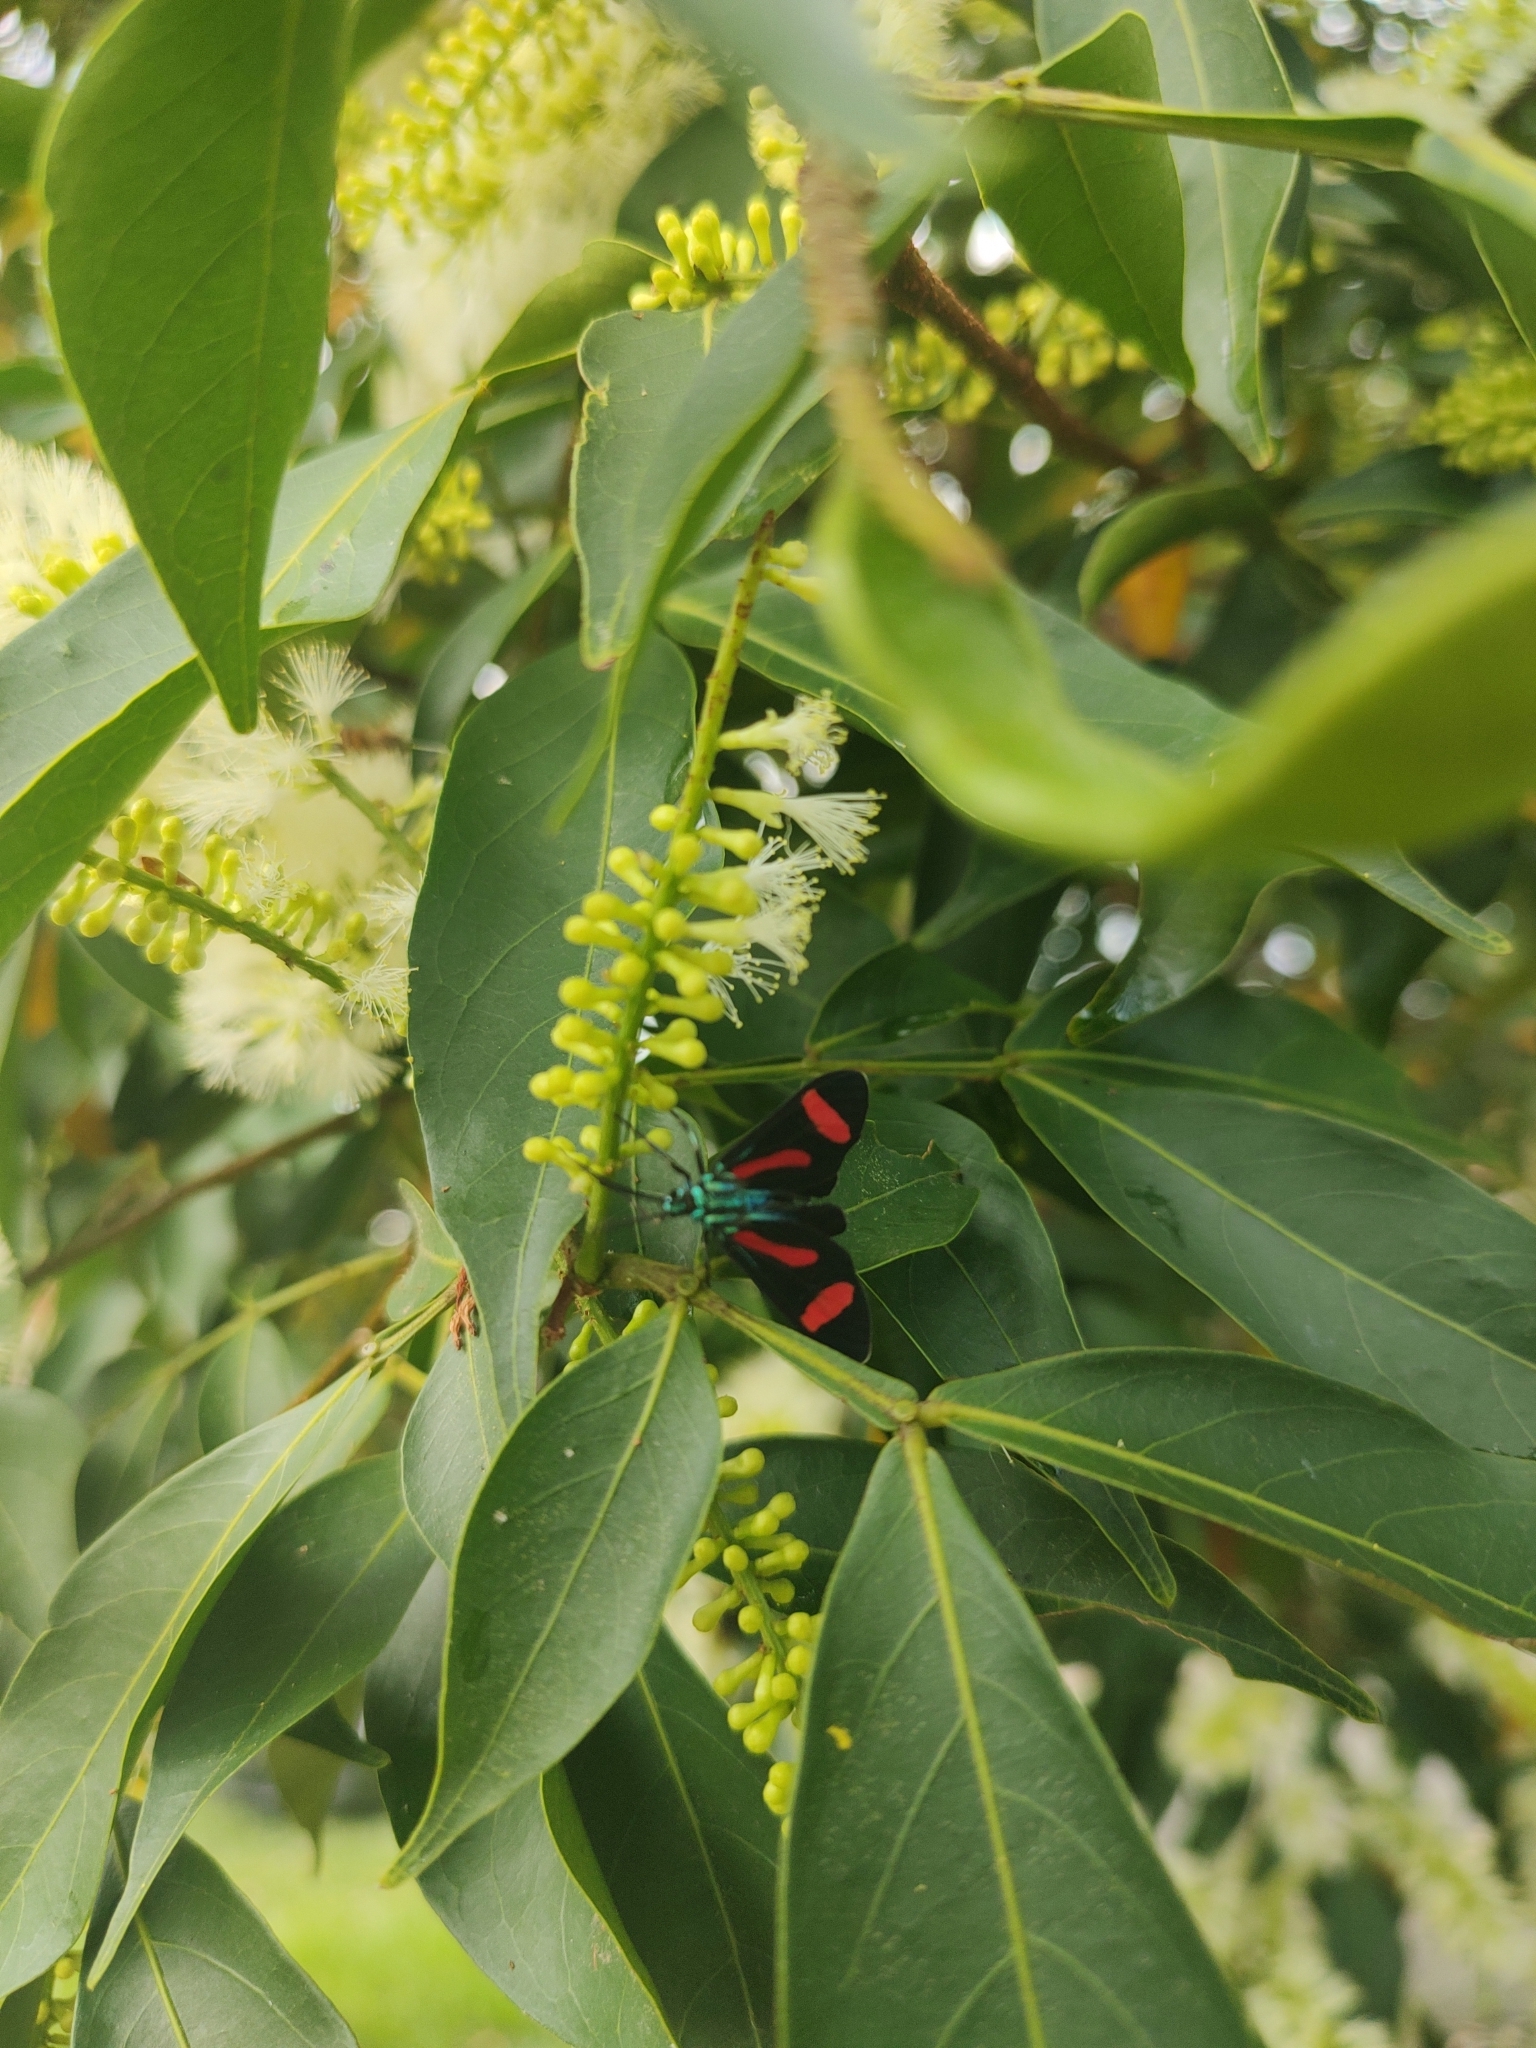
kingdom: Animalia
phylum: Arthropoda
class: Insecta
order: Lepidoptera
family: Erebidae
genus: Cyanopepla
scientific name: Cyanopepla jucunda
